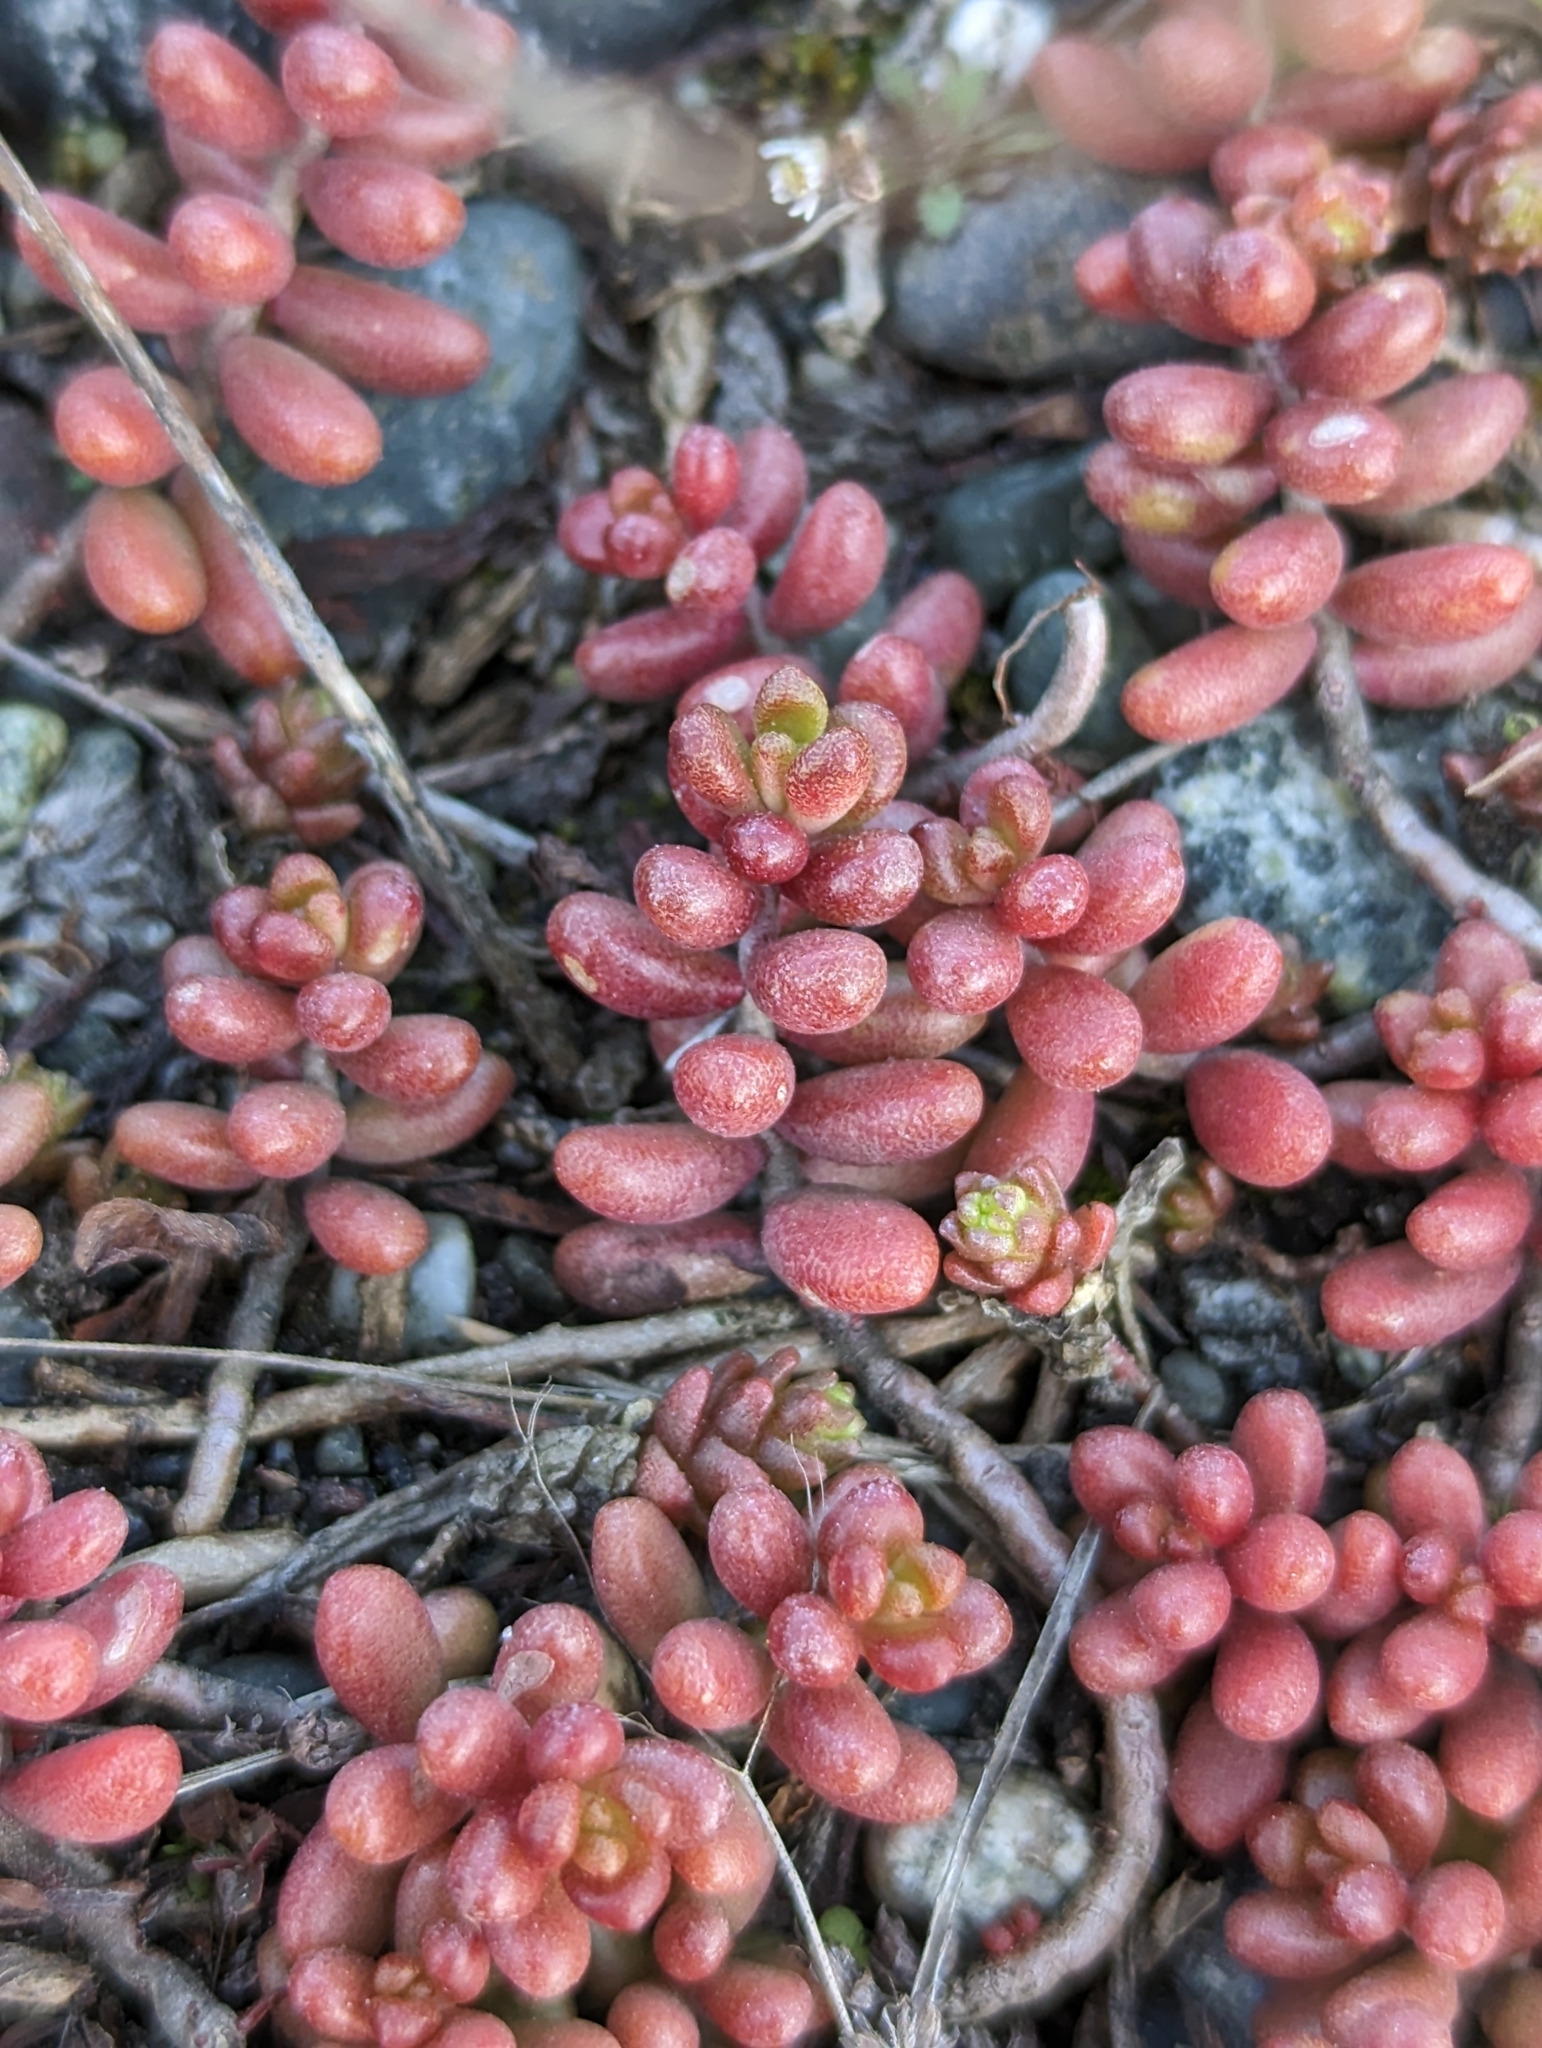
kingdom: Plantae
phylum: Tracheophyta
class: Magnoliopsida
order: Saxifragales
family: Crassulaceae
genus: Sedum
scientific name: Sedum album
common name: White stonecrop
